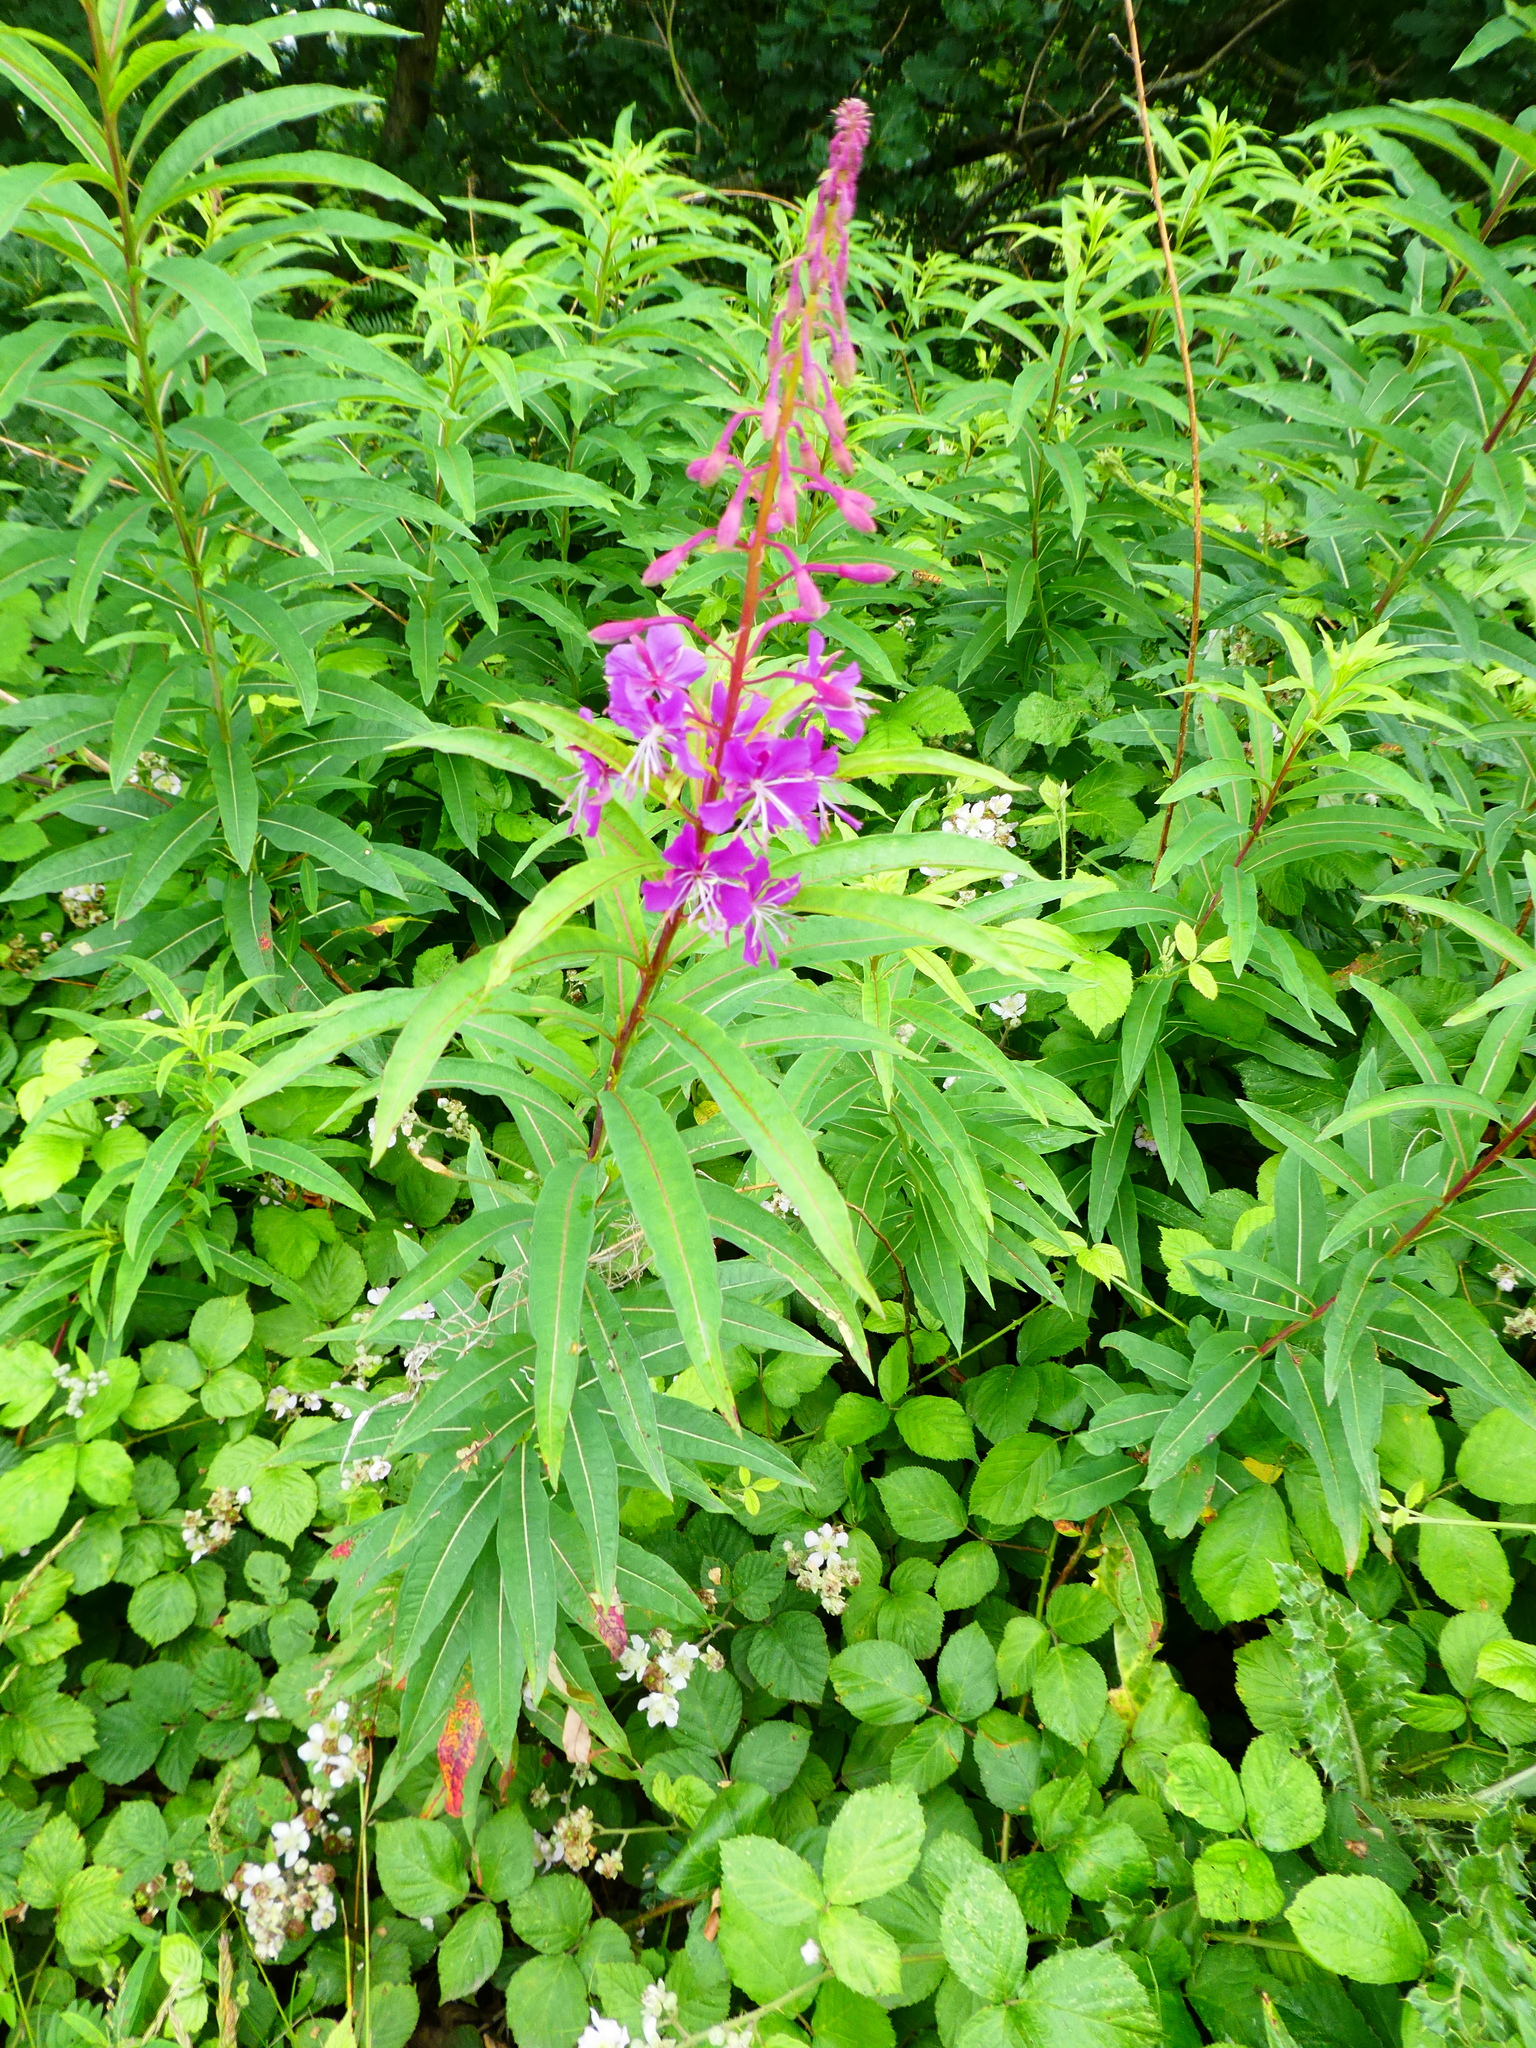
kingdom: Plantae
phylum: Tracheophyta
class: Magnoliopsida
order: Myrtales
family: Onagraceae
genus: Chamaenerion
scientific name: Chamaenerion angustifolium
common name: Fireweed
